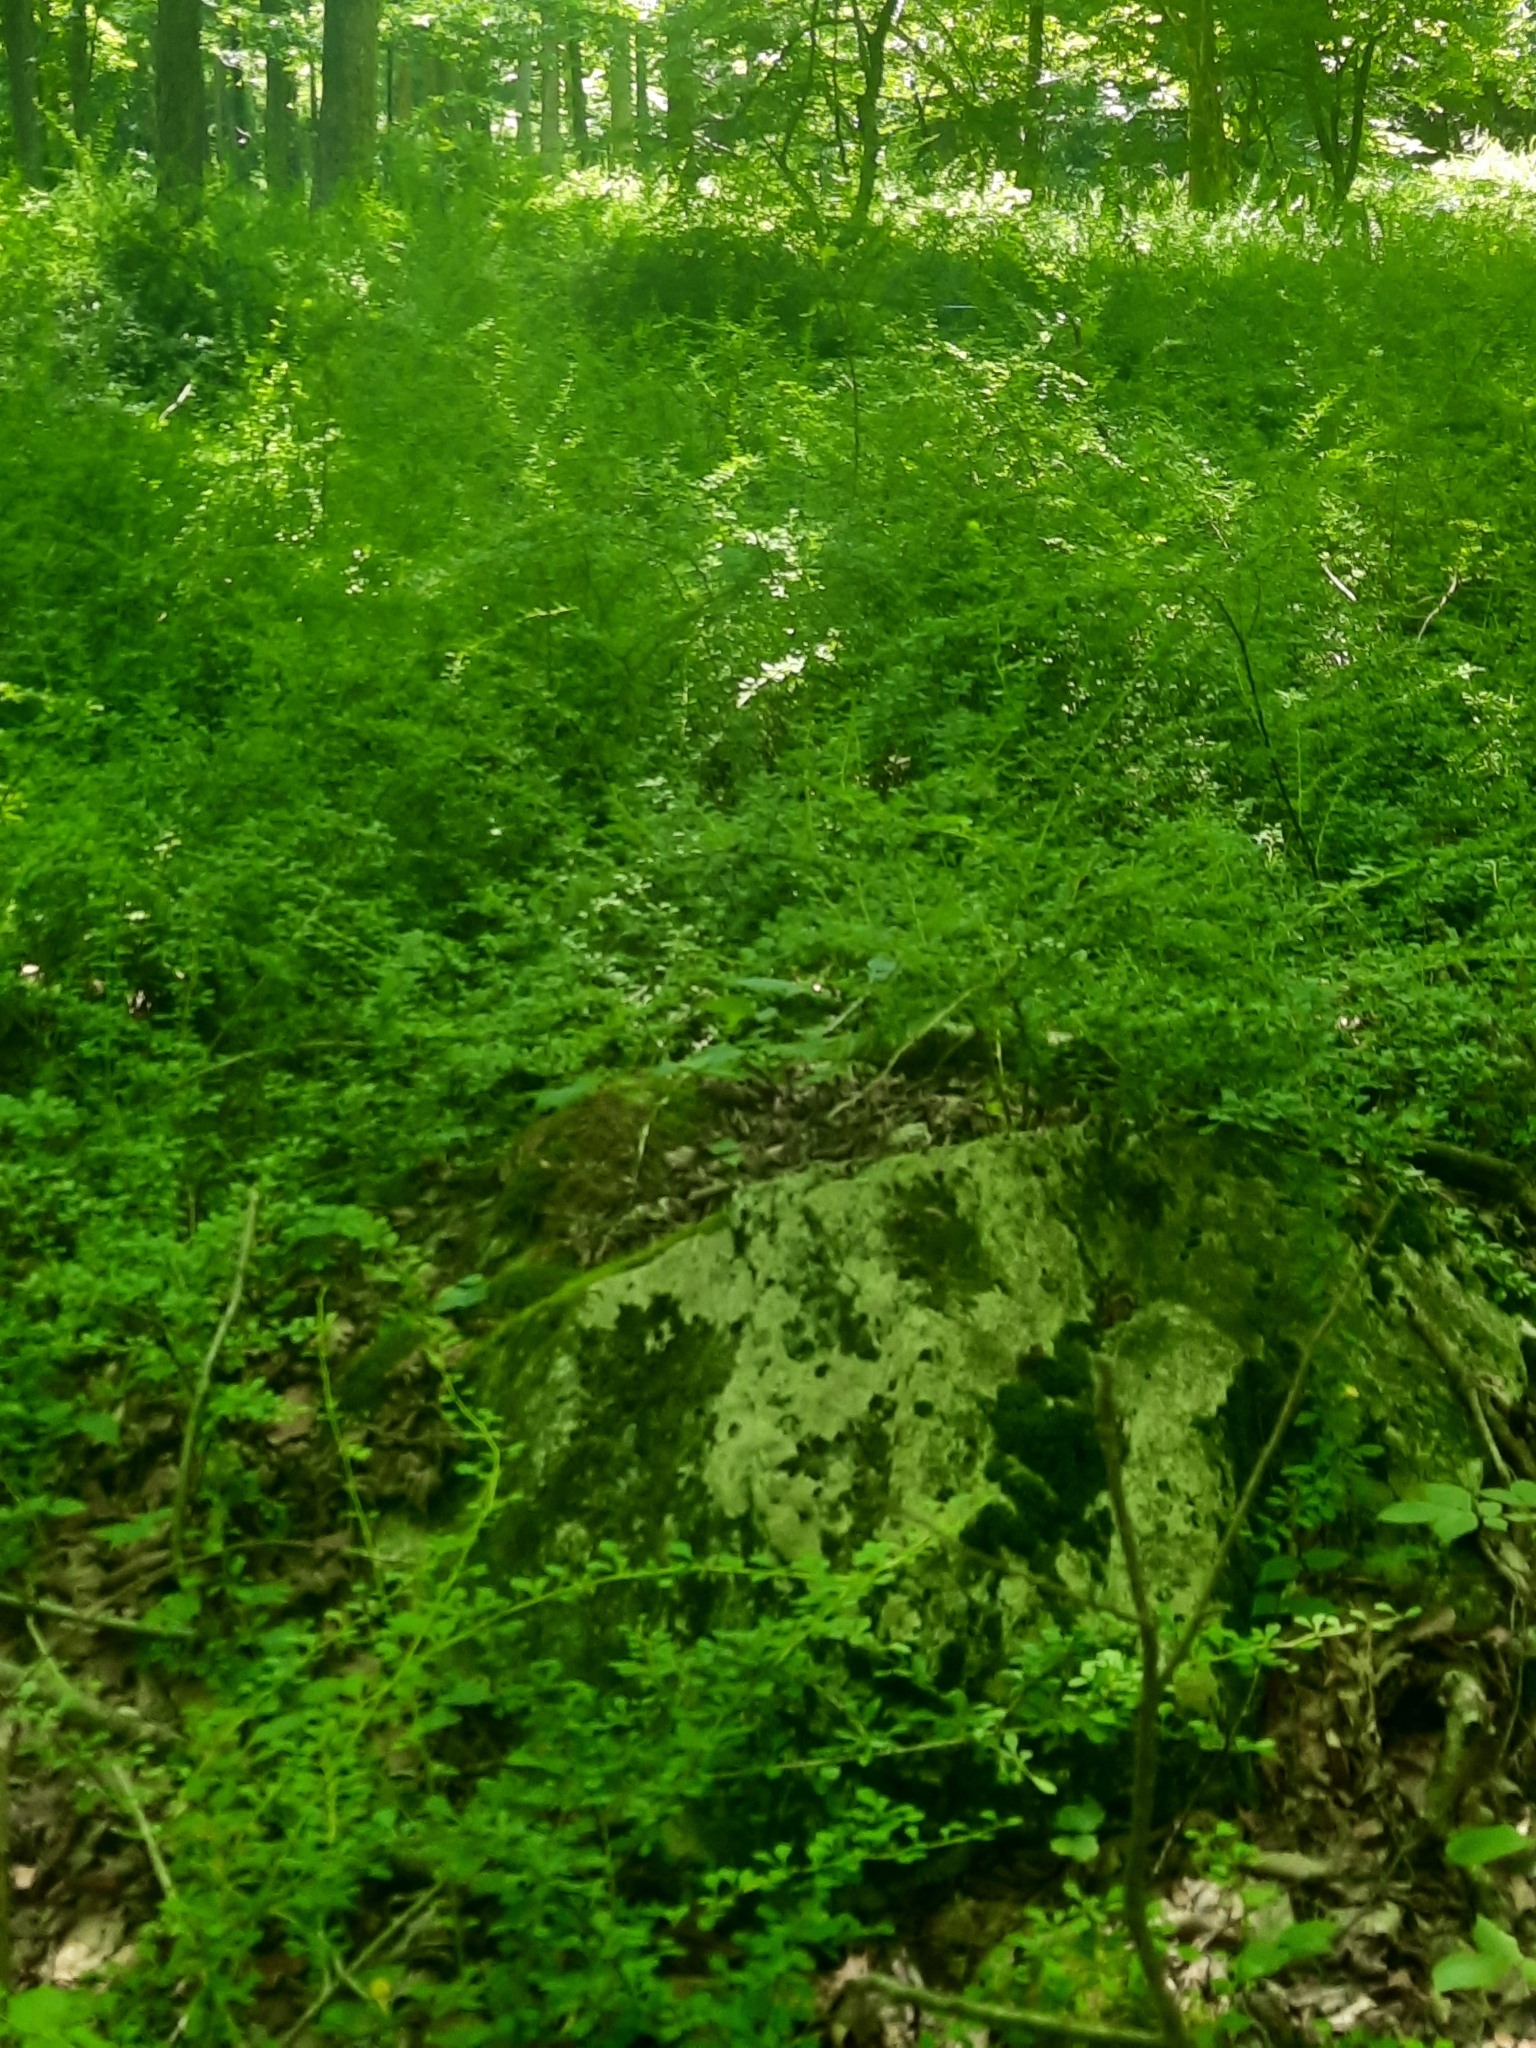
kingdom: Plantae
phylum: Tracheophyta
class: Magnoliopsida
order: Ranunculales
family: Berberidaceae
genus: Berberis
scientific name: Berberis thunbergii
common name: Japanese barberry
